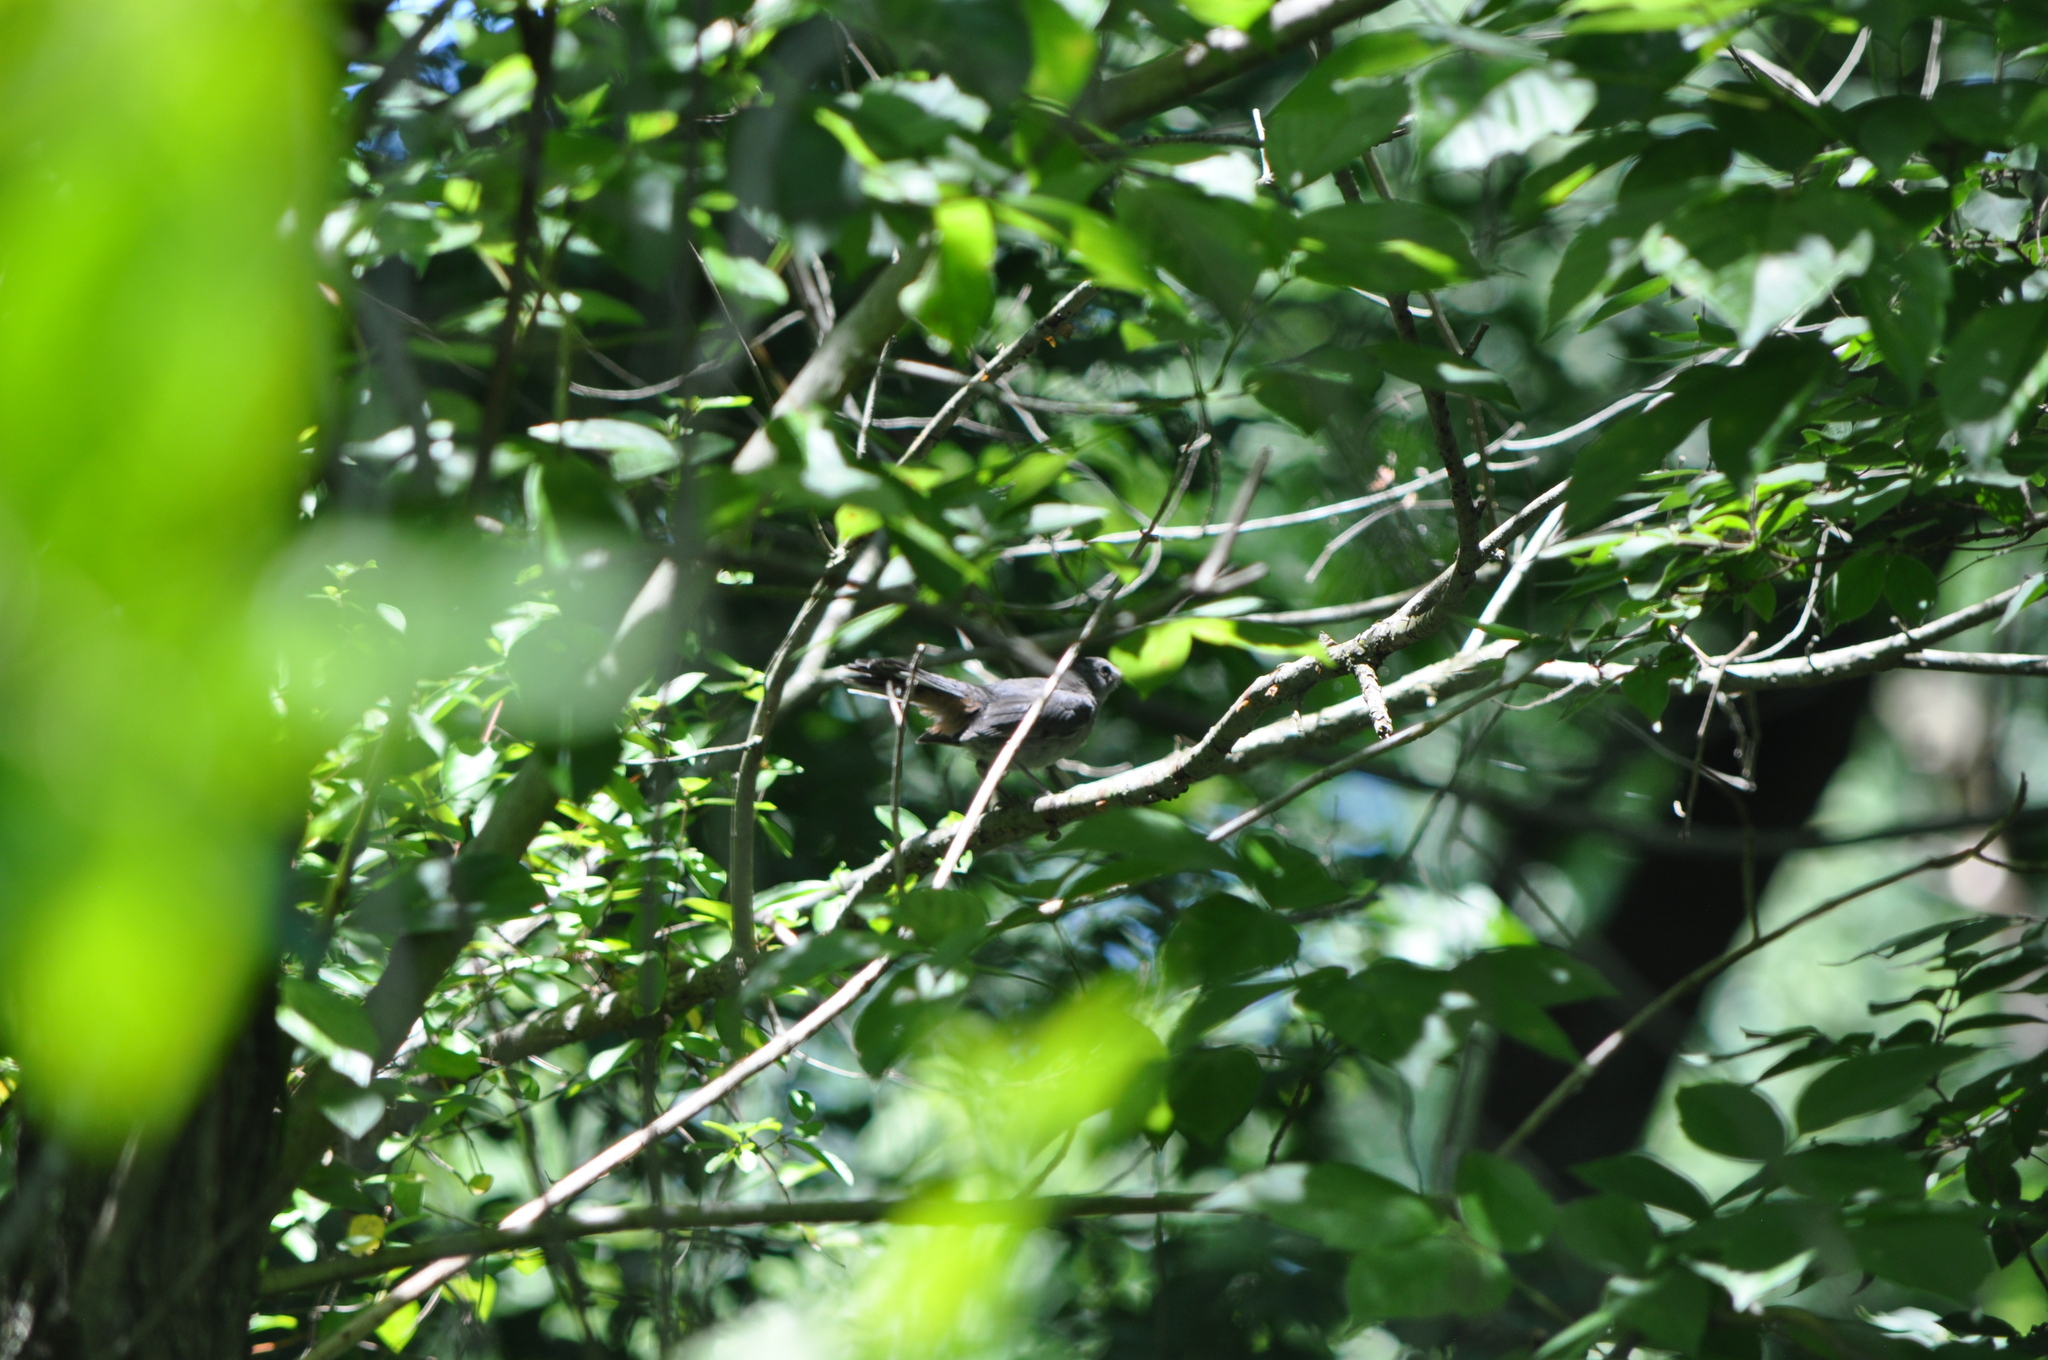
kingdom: Animalia
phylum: Chordata
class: Aves
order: Passeriformes
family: Mimidae
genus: Dumetella
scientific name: Dumetella carolinensis
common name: Gray catbird
